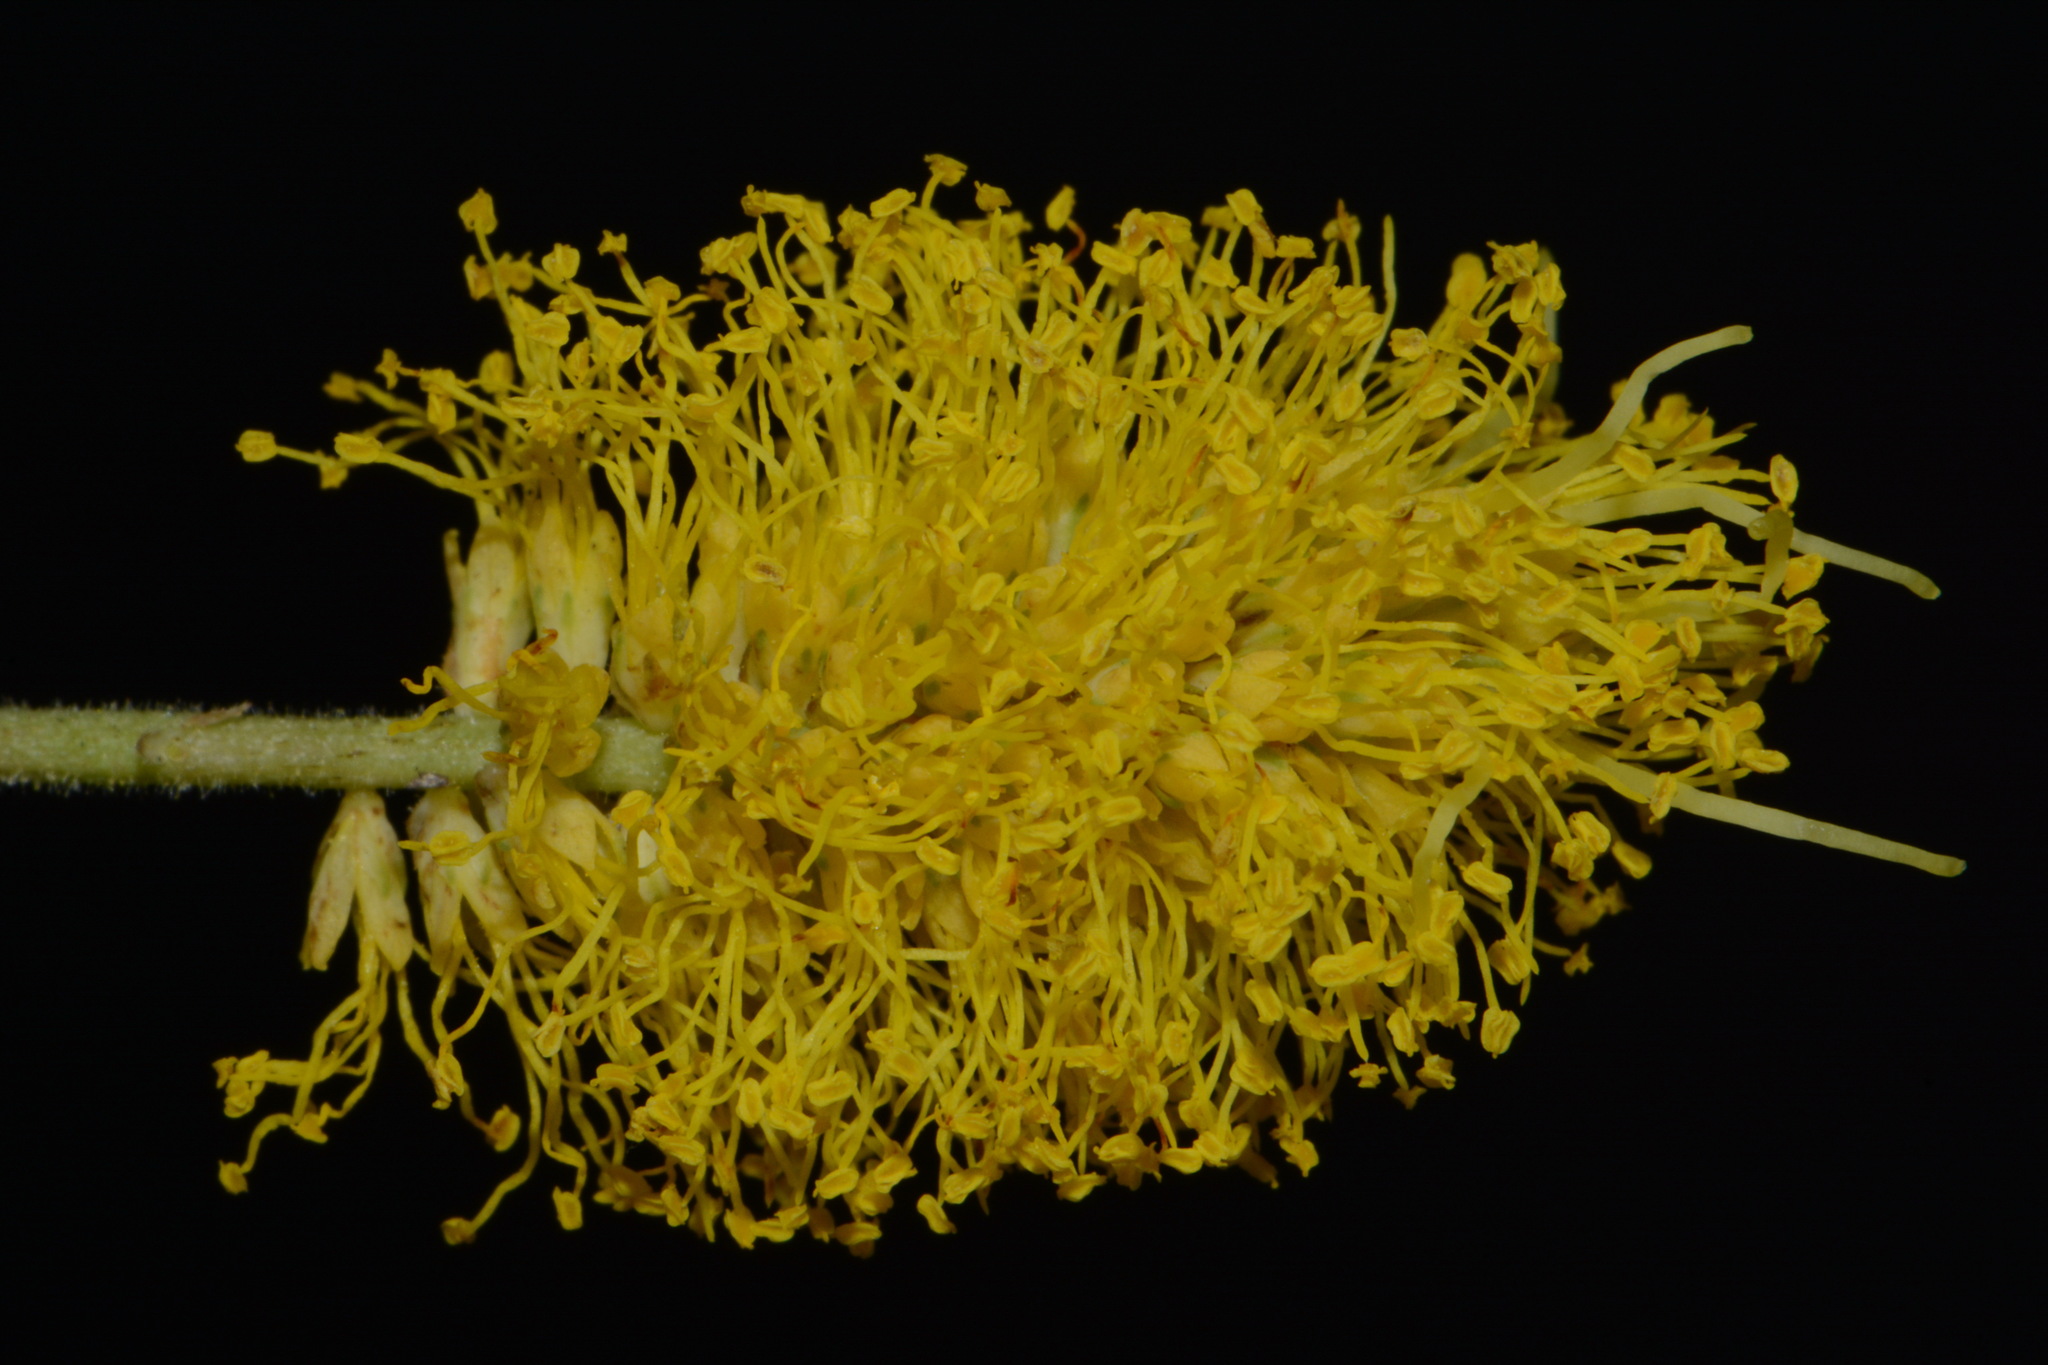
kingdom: Plantae
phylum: Tracheophyta
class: Magnoliopsida
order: Fabales
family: Fabaceae
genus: Neptunia
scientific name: Neptunia lutea
